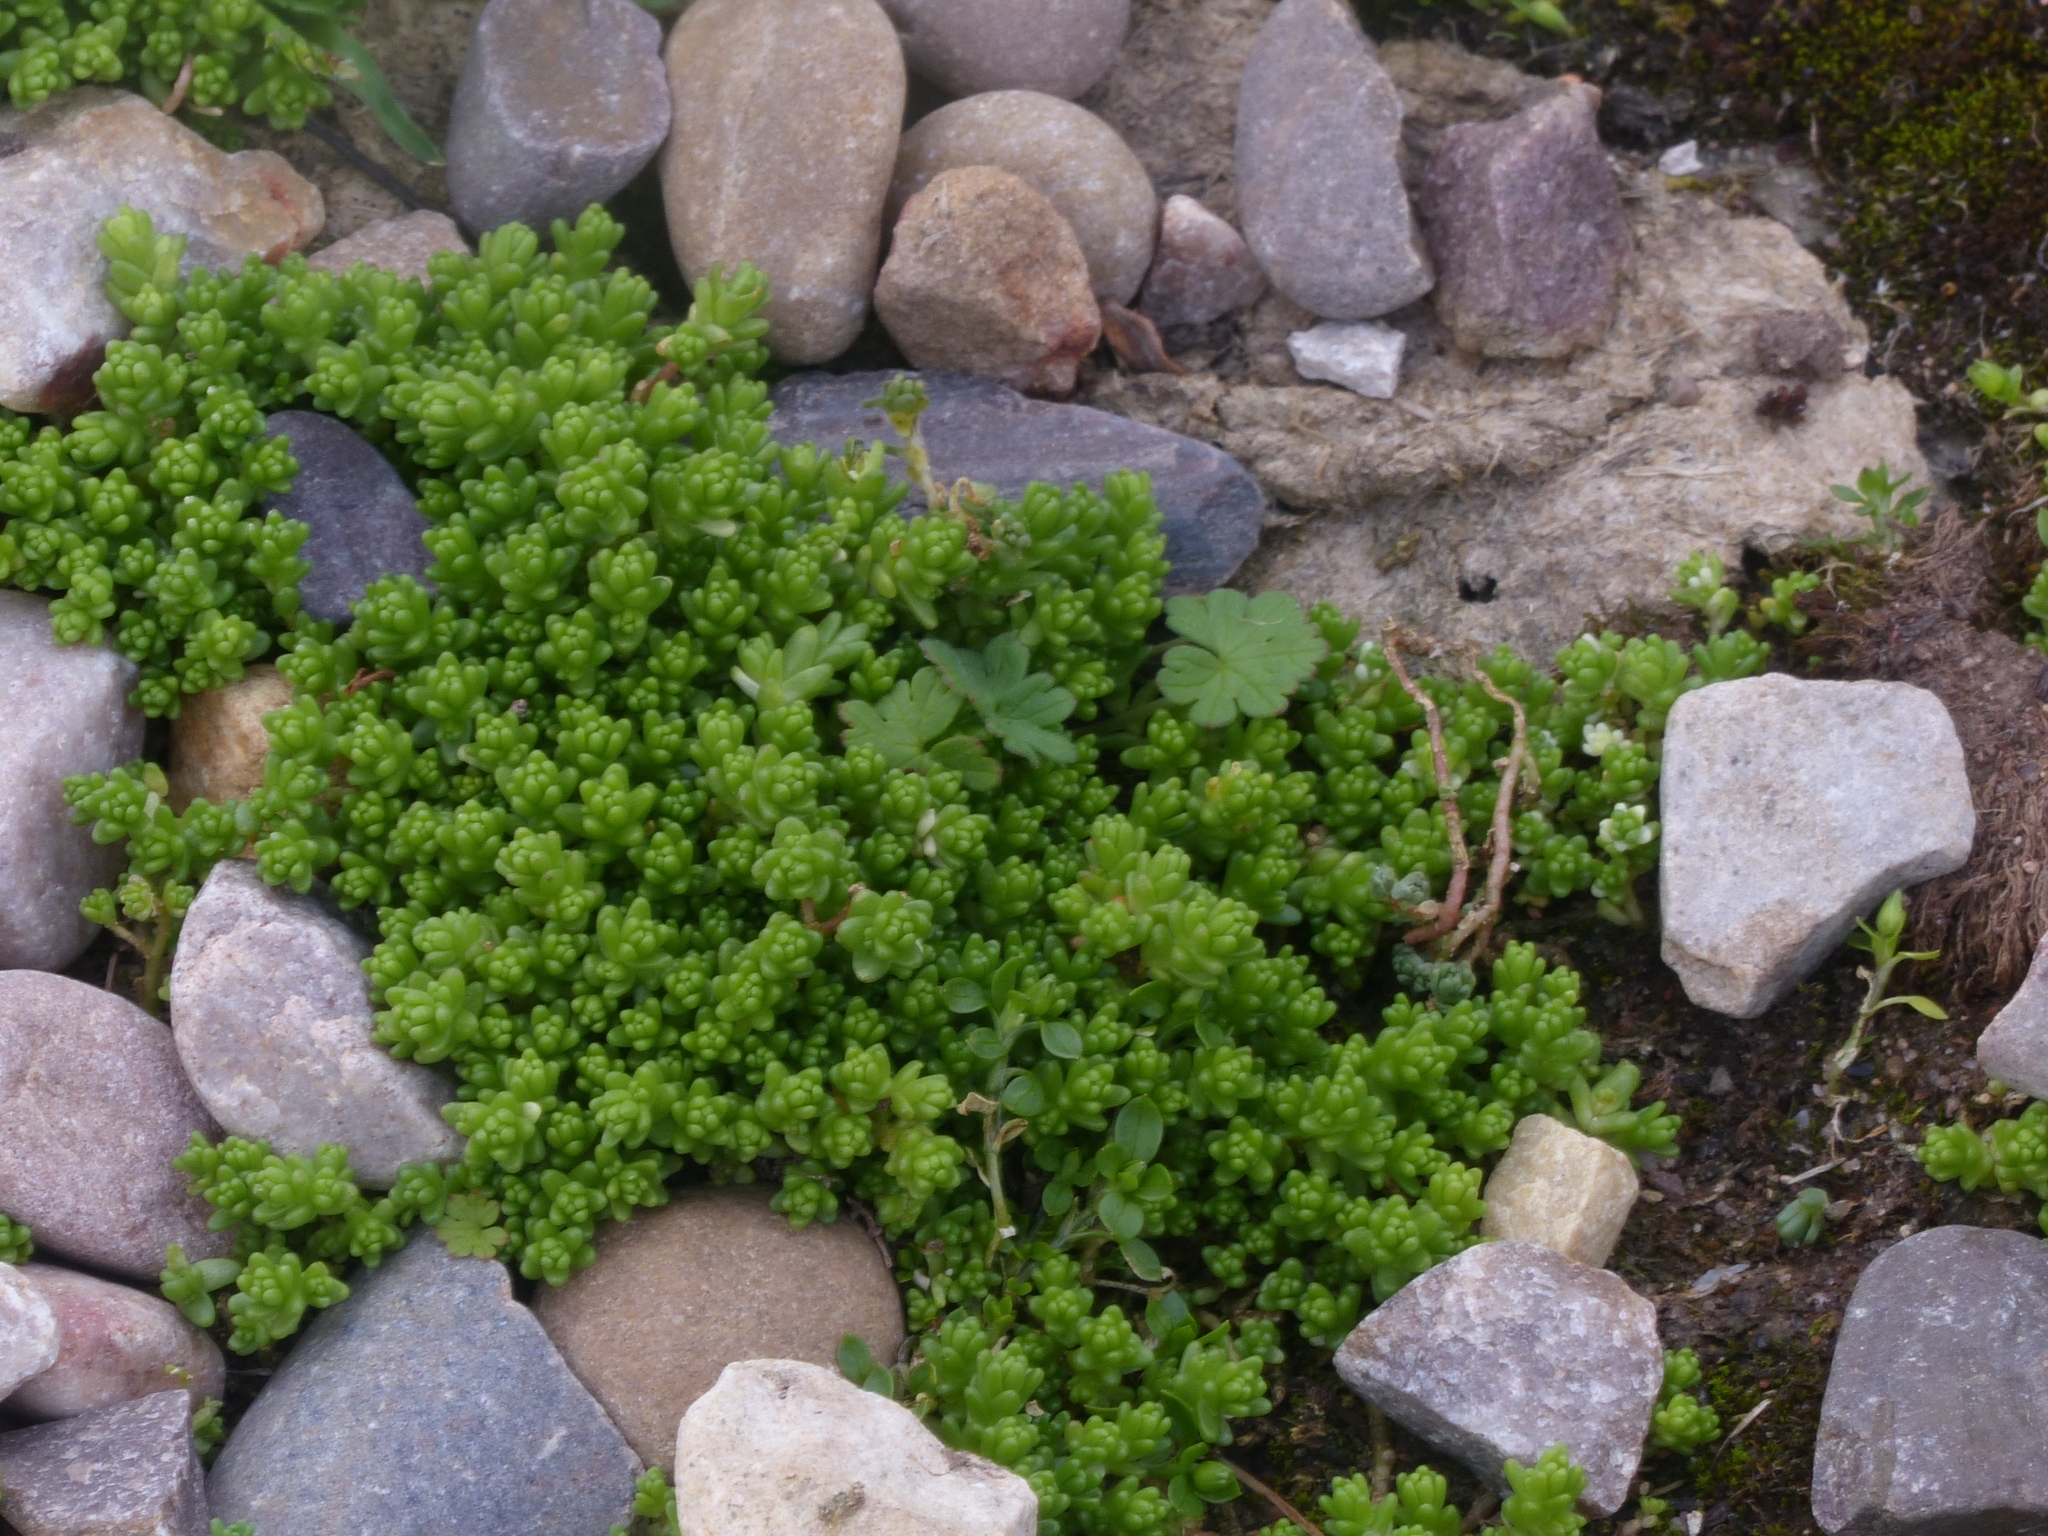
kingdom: Plantae
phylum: Tracheophyta
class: Magnoliopsida
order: Saxifragales
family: Crassulaceae
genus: Sedum
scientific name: Sedum acre
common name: Biting stonecrop
